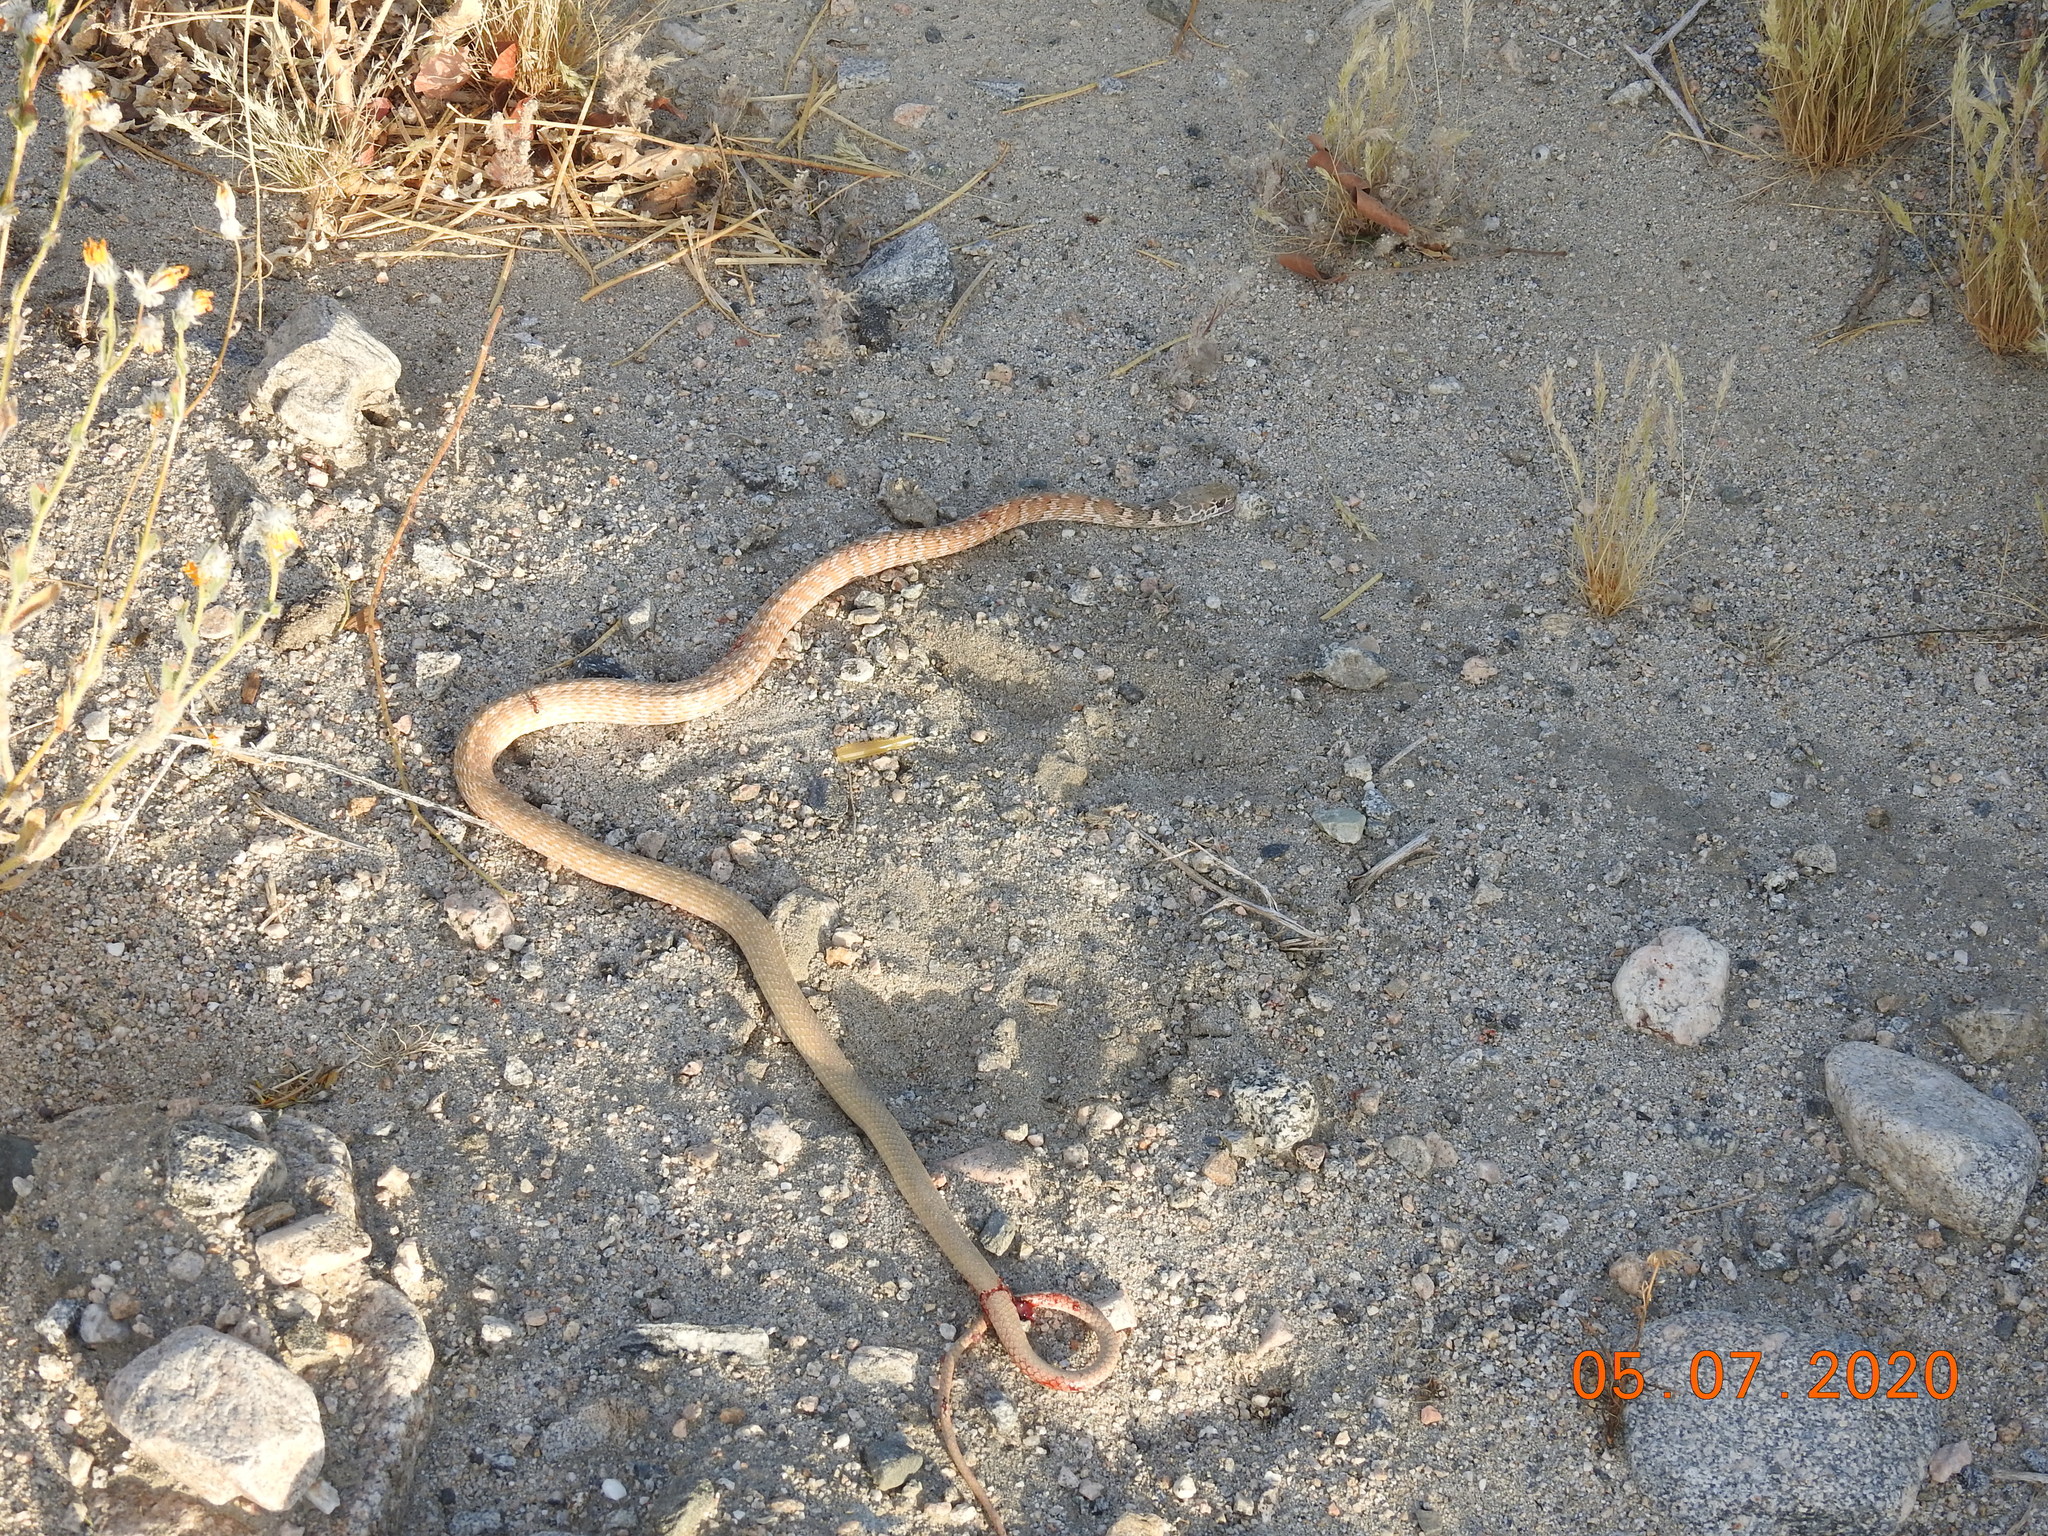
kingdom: Animalia
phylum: Chordata
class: Squamata
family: Colubridae
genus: Masticophis
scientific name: Masticophis flagellum
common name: Coachwhip
